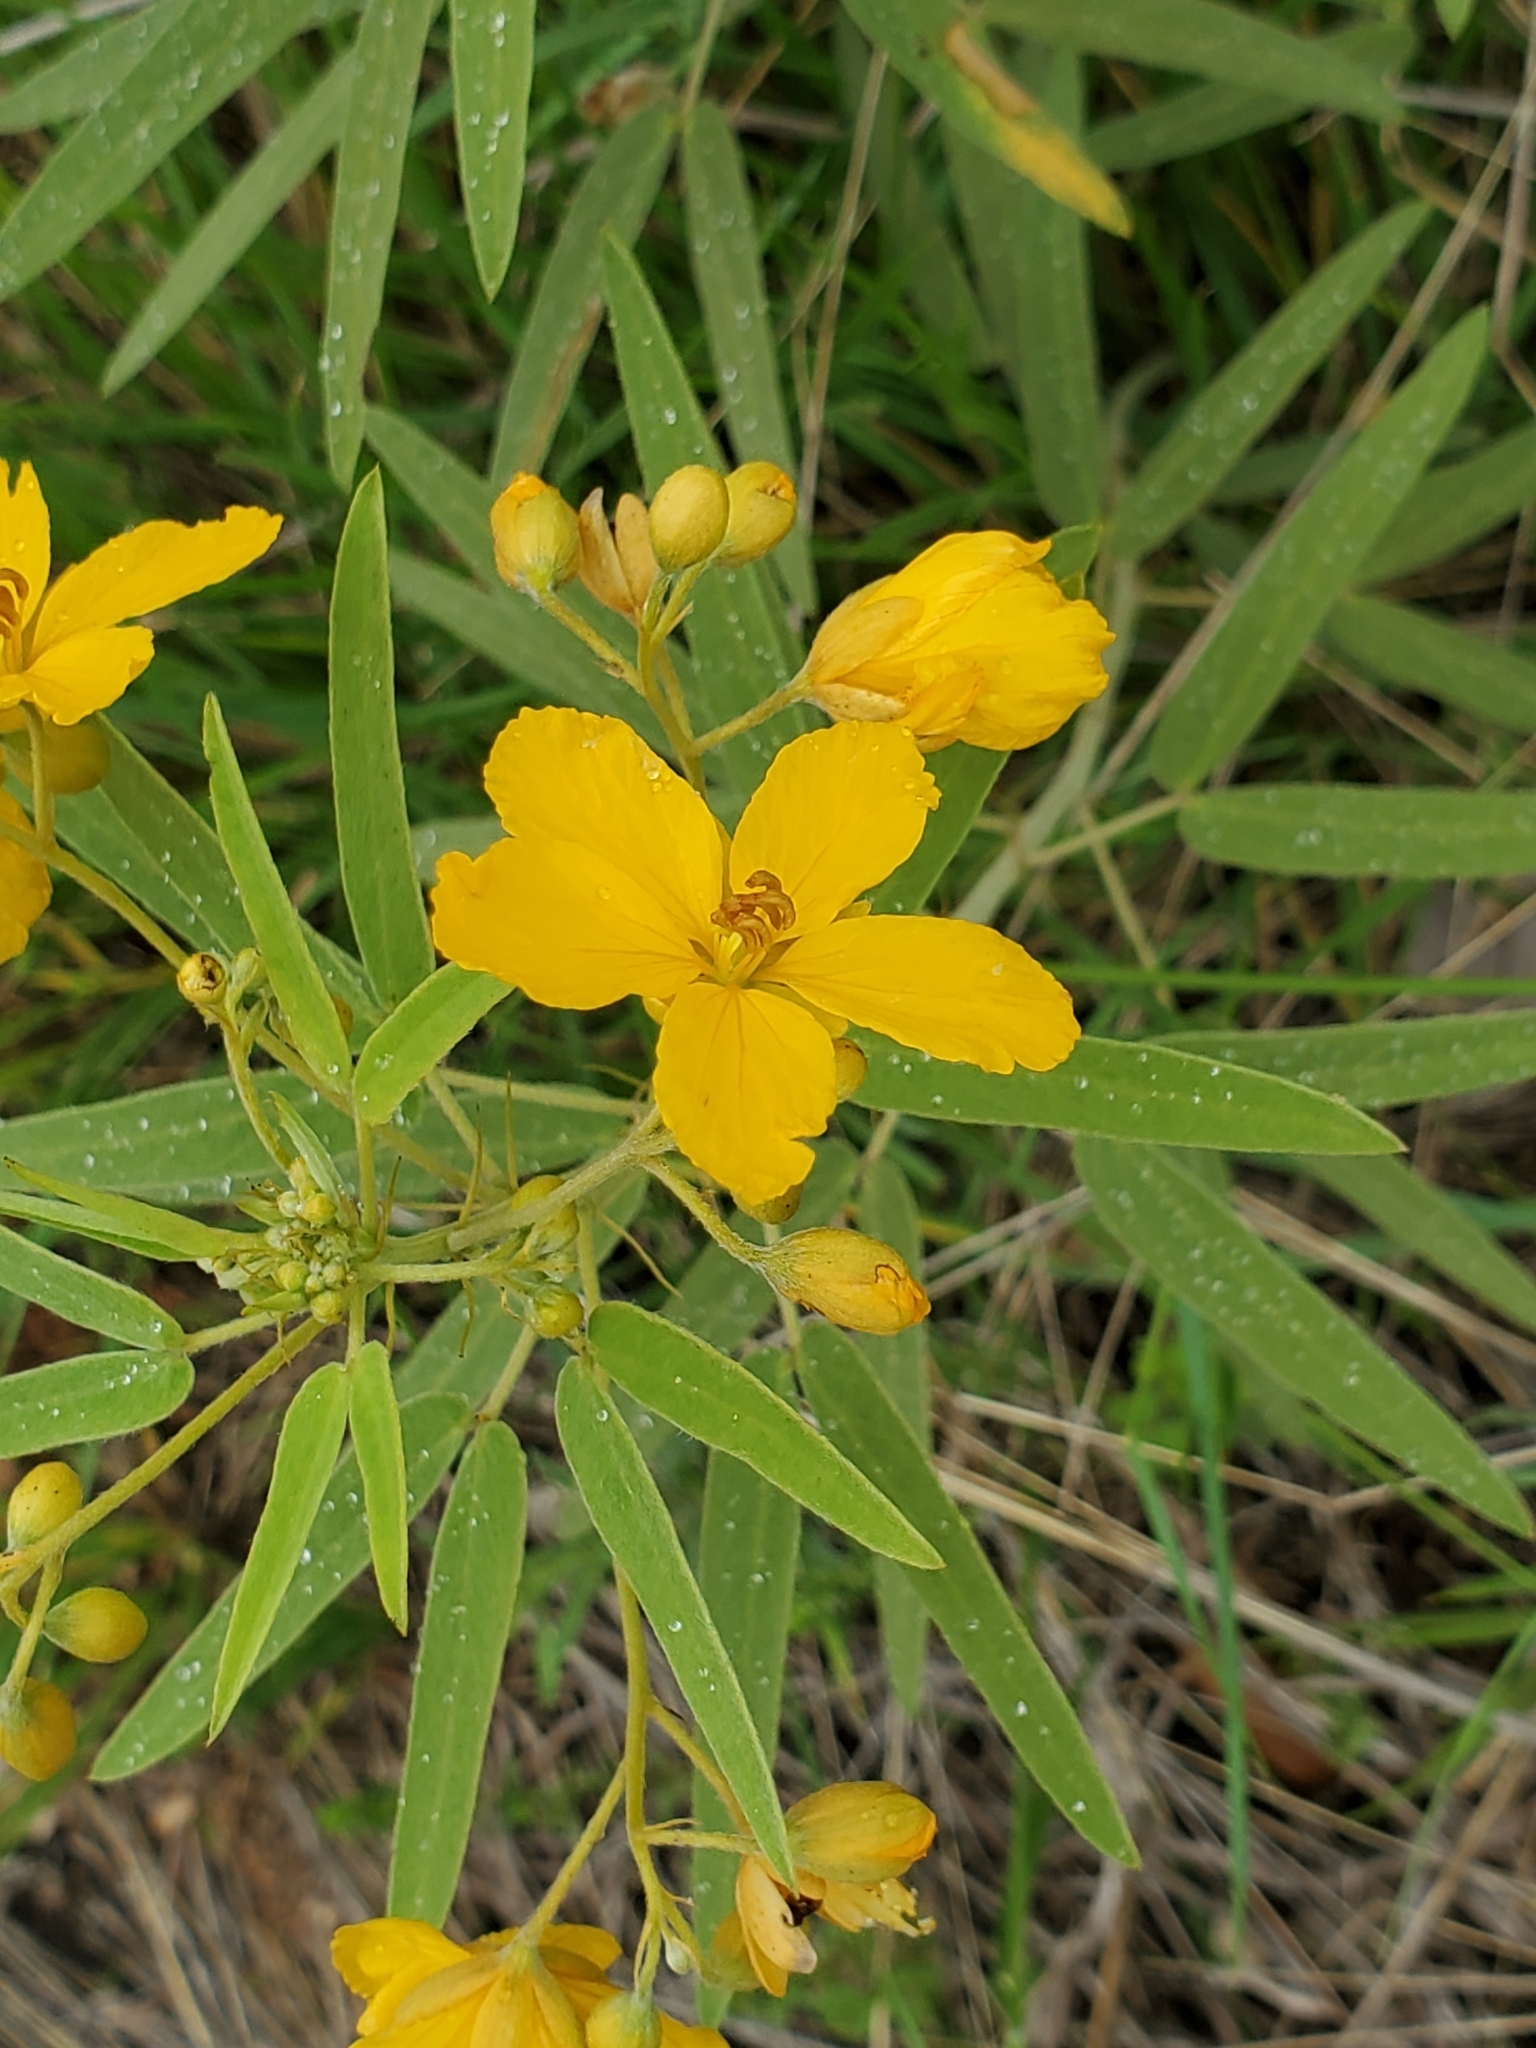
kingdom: Plantae
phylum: Tracheophyta
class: Magnoliopsida
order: Fabales
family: Fabaceae
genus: Senna
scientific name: Senna roemeriana
